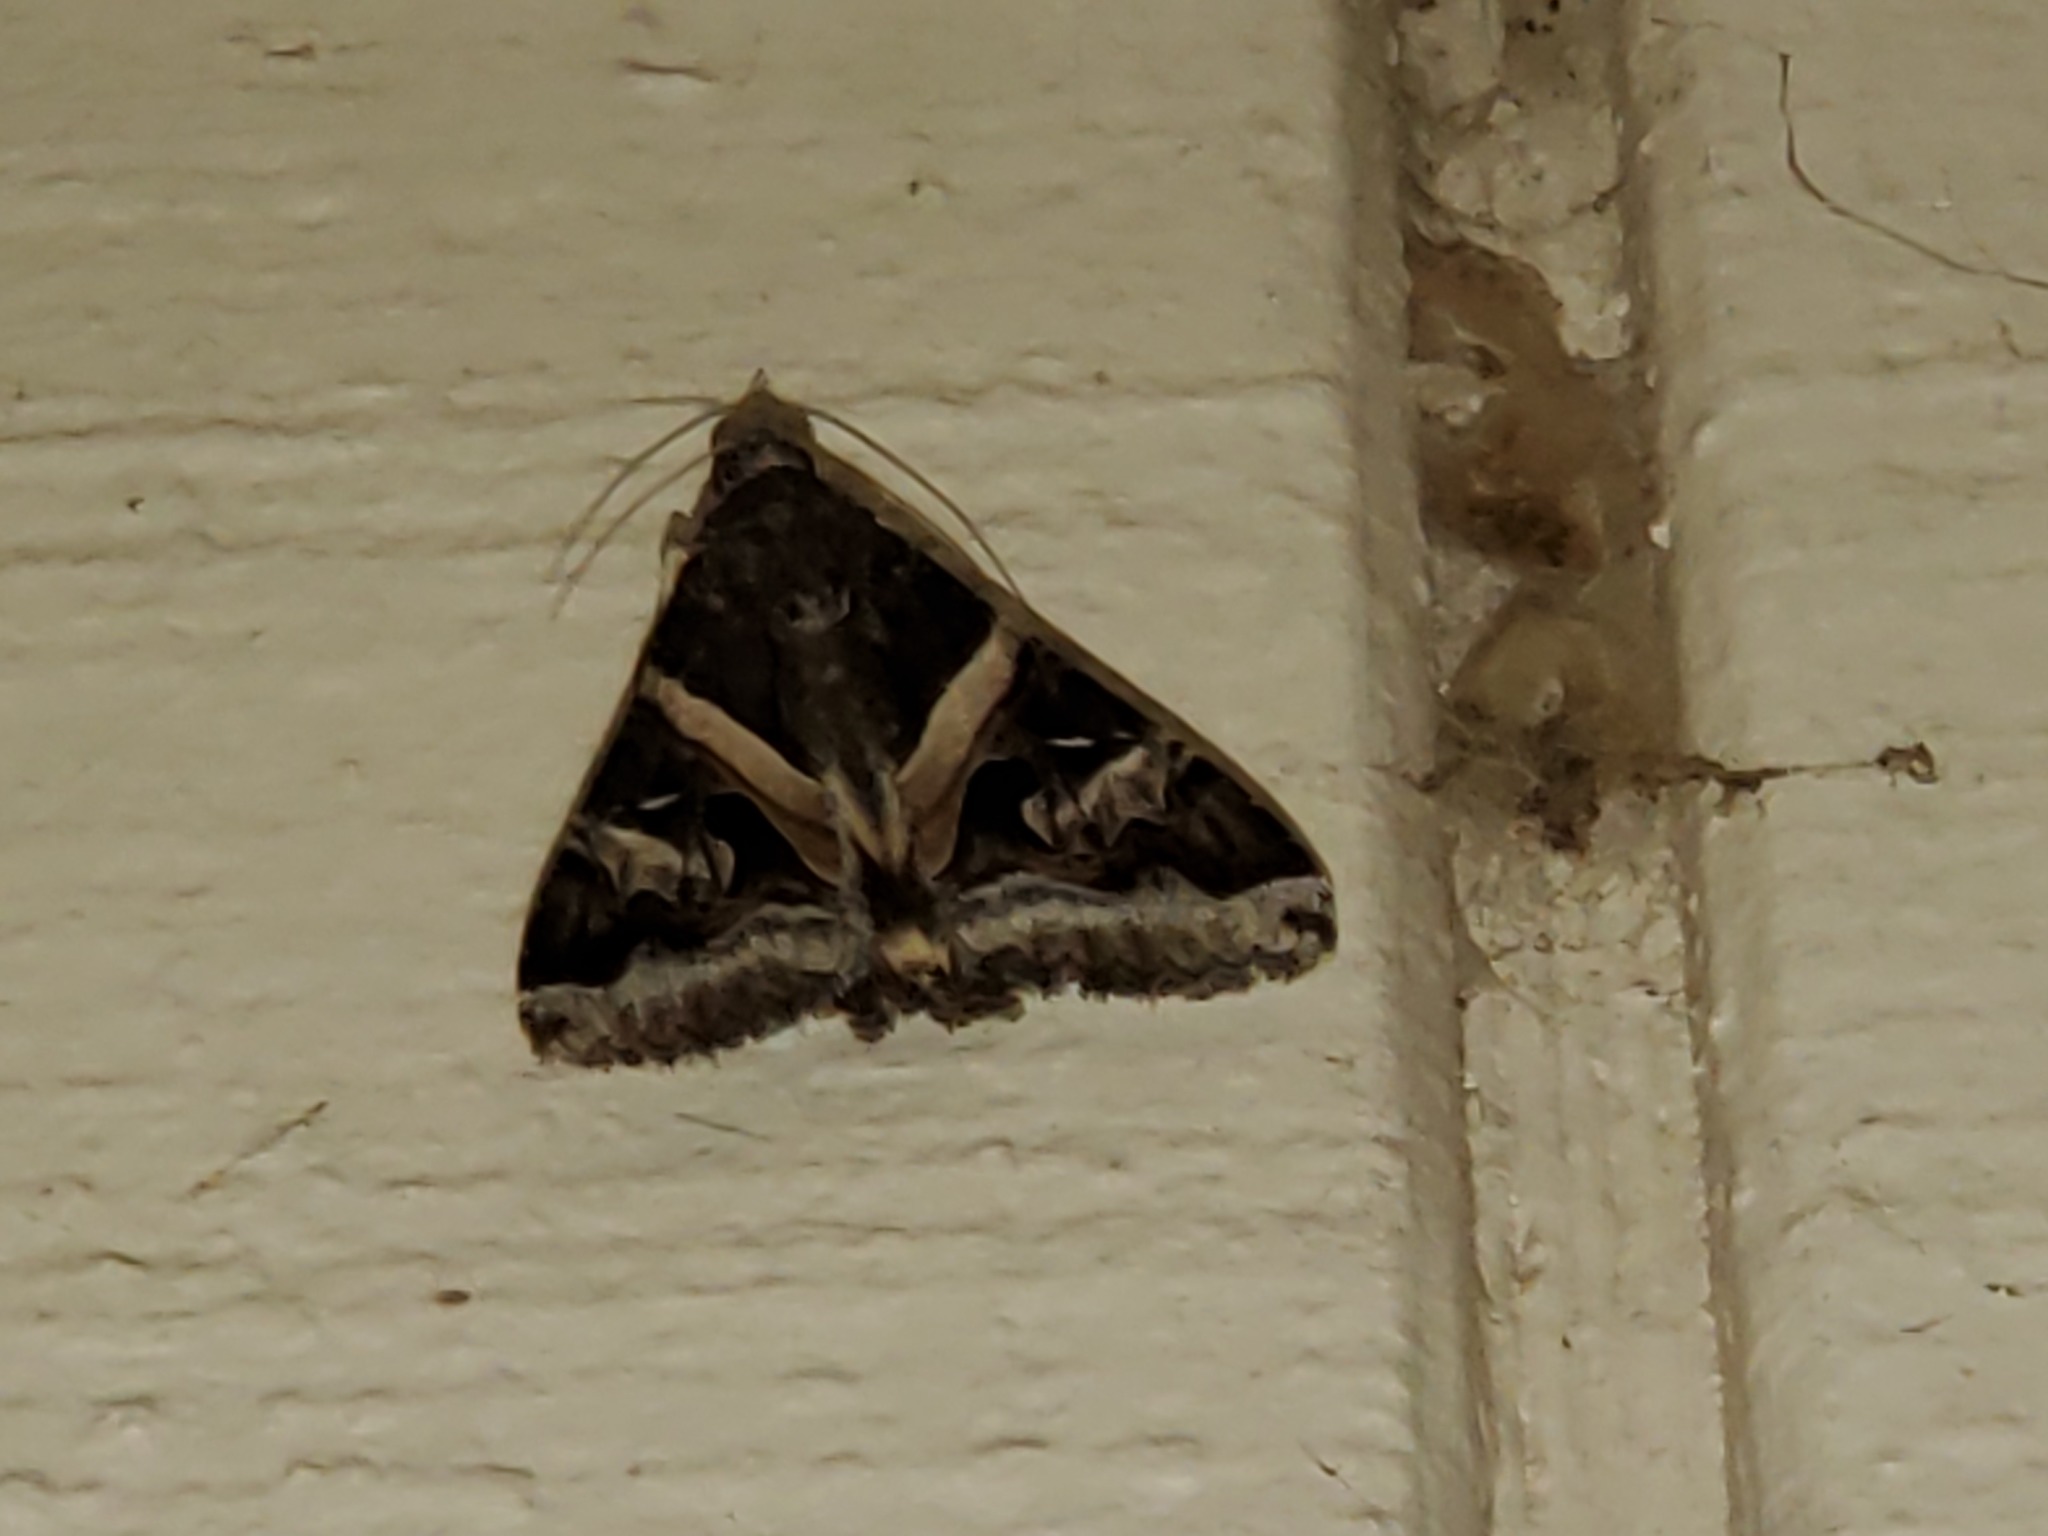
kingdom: Animalia
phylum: Arthropoda
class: Insecta
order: Lepidoptera
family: Erebidae
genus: Melipotis
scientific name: Melipotis indomita
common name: Moth
